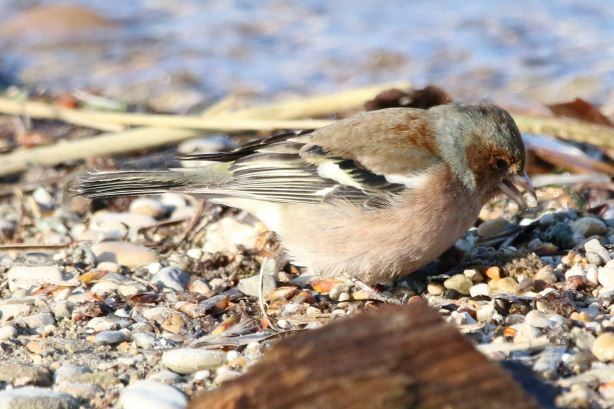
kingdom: Animalia
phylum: Chordata
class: Aves
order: Passeriformes
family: Fringillidae
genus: Fringilla
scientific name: Fringilla coelebs
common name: Common chaffinch
